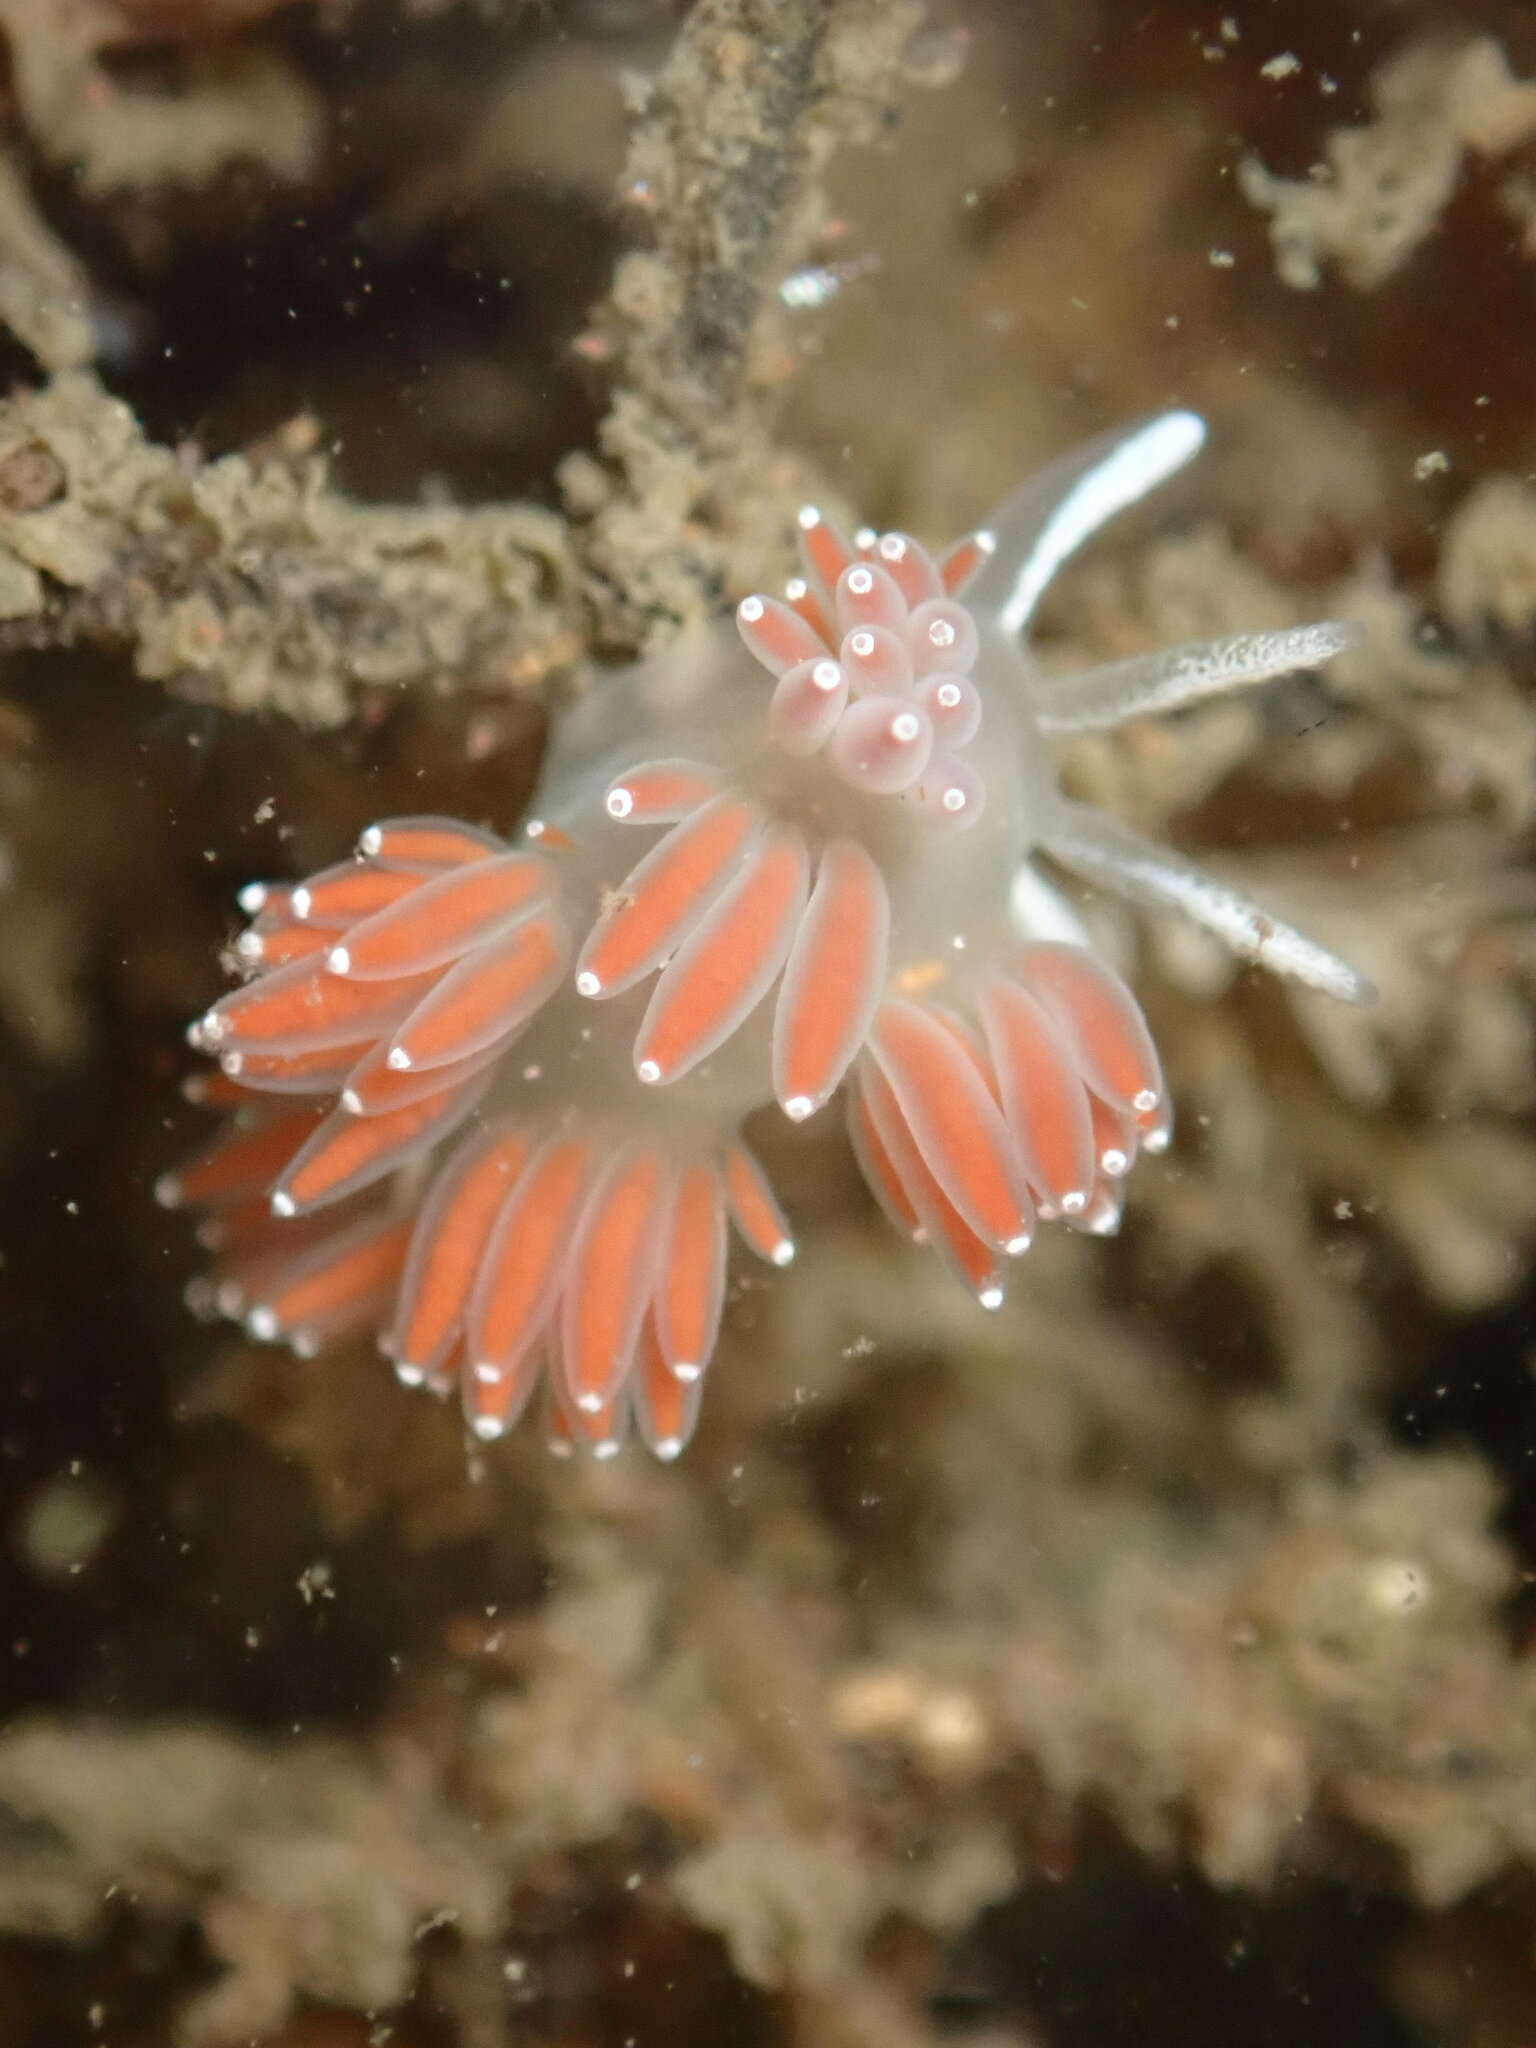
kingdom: Animalia
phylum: Mollusca
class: Gastropoda
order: Nudibranchia
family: Coryphellidae
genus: Coryphella
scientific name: Coryphella verrucosa
